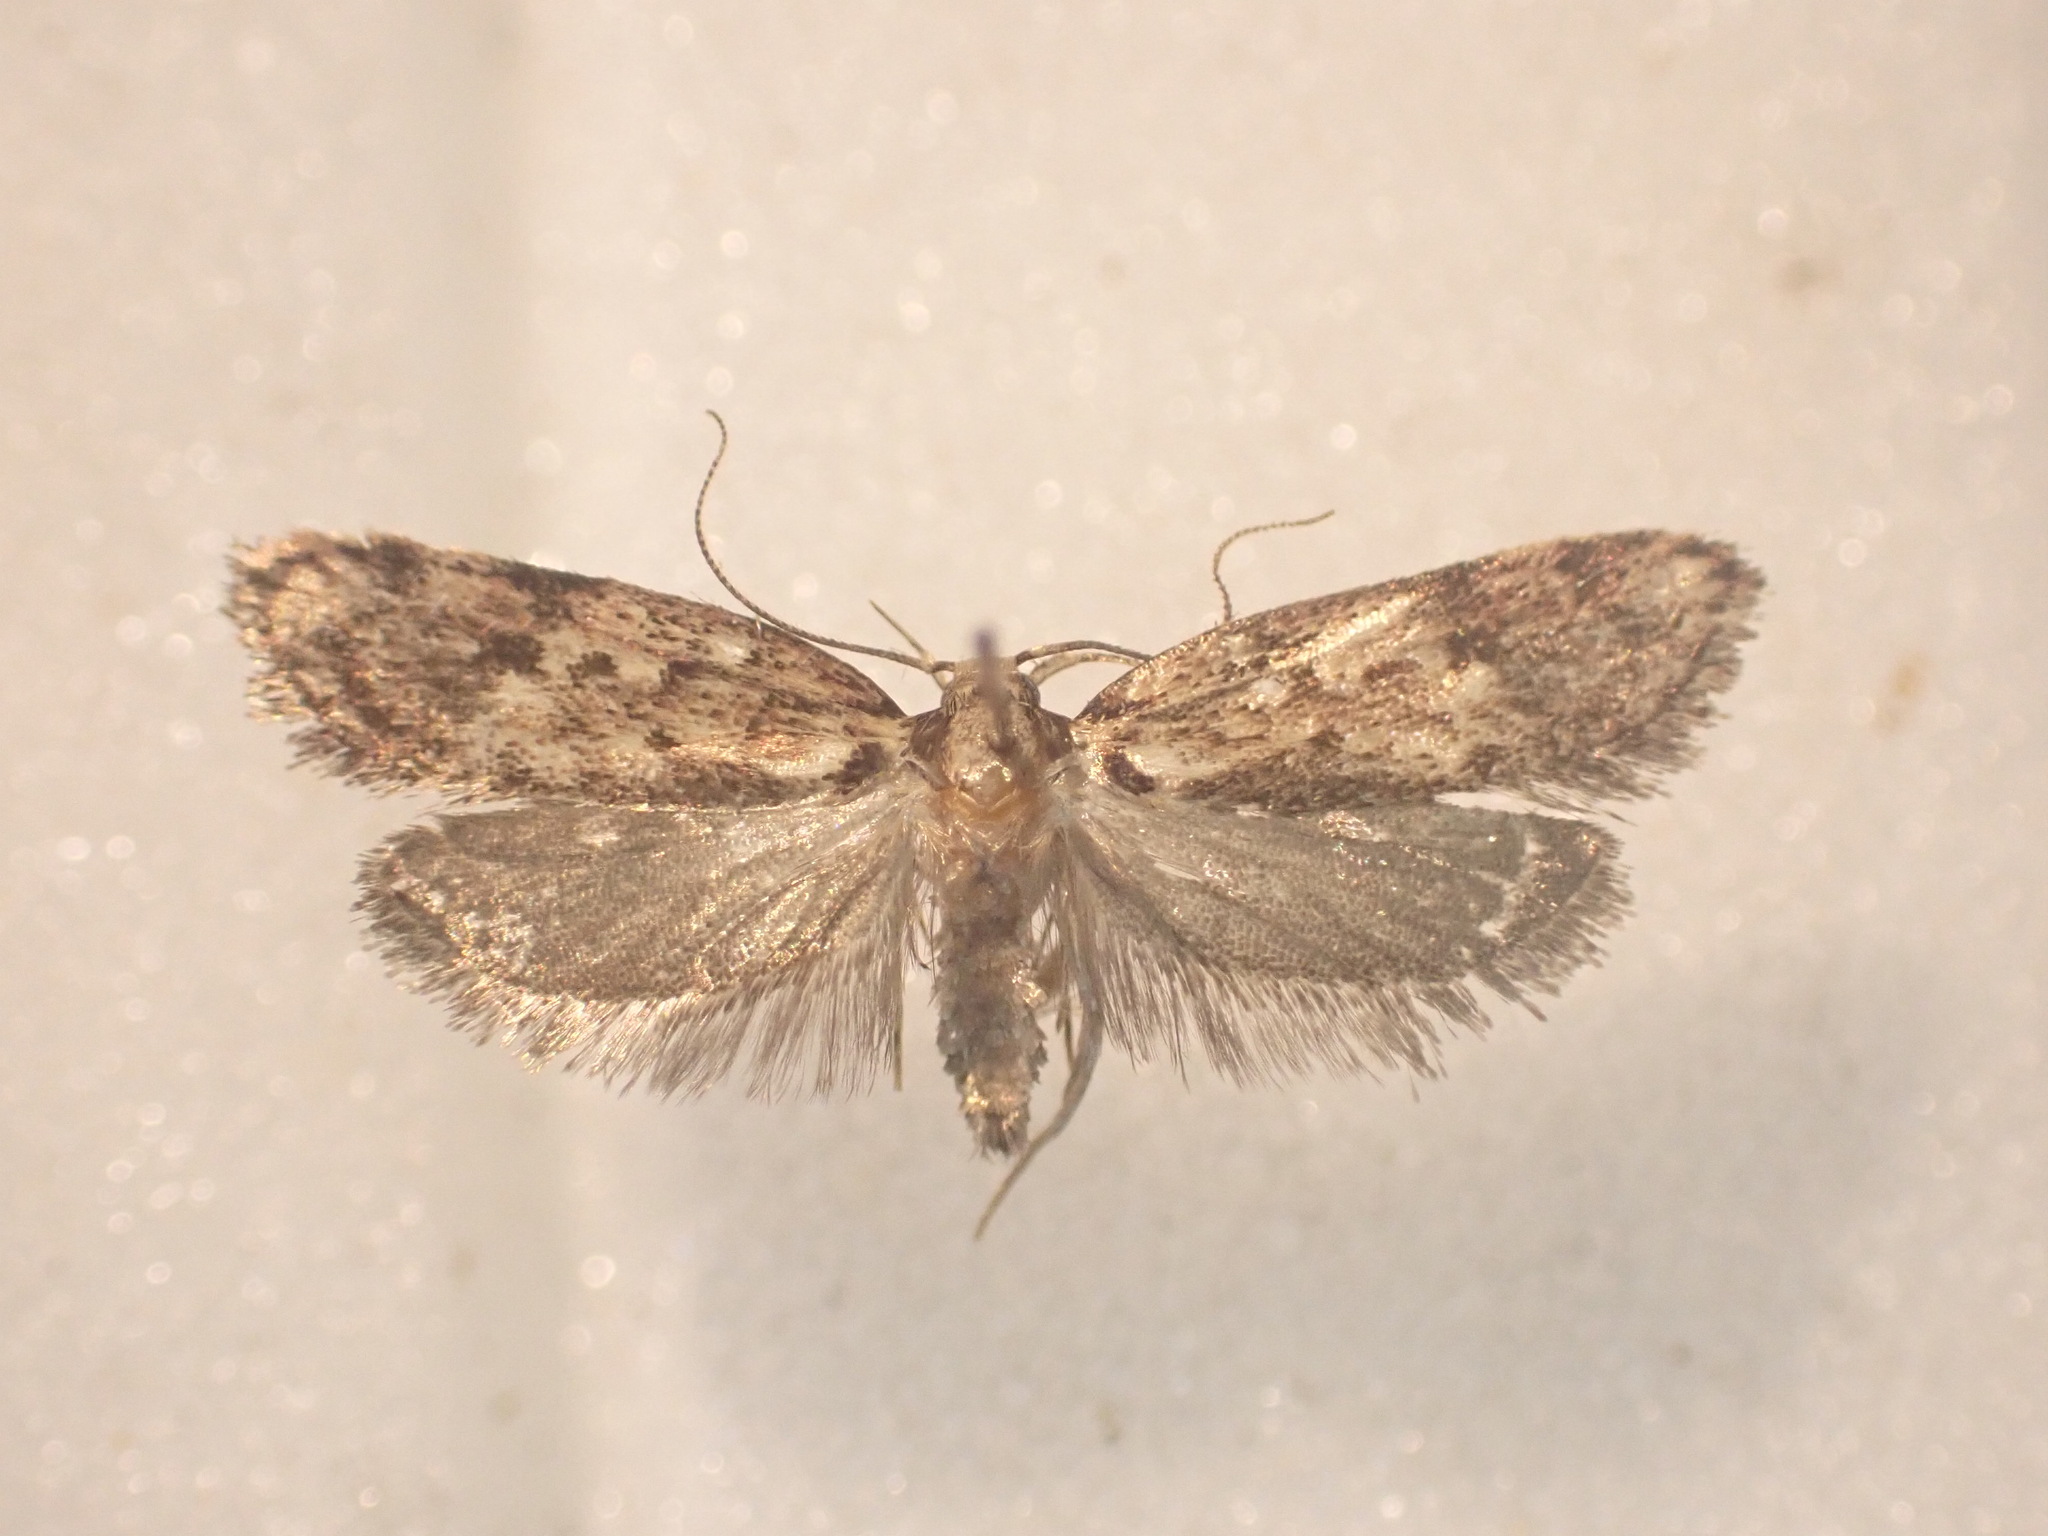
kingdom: Animalia
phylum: Arthropoda
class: Insecta
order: Lepidoptera
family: Oecophoridae
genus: Eulechria
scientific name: Eulechria zophoessa
